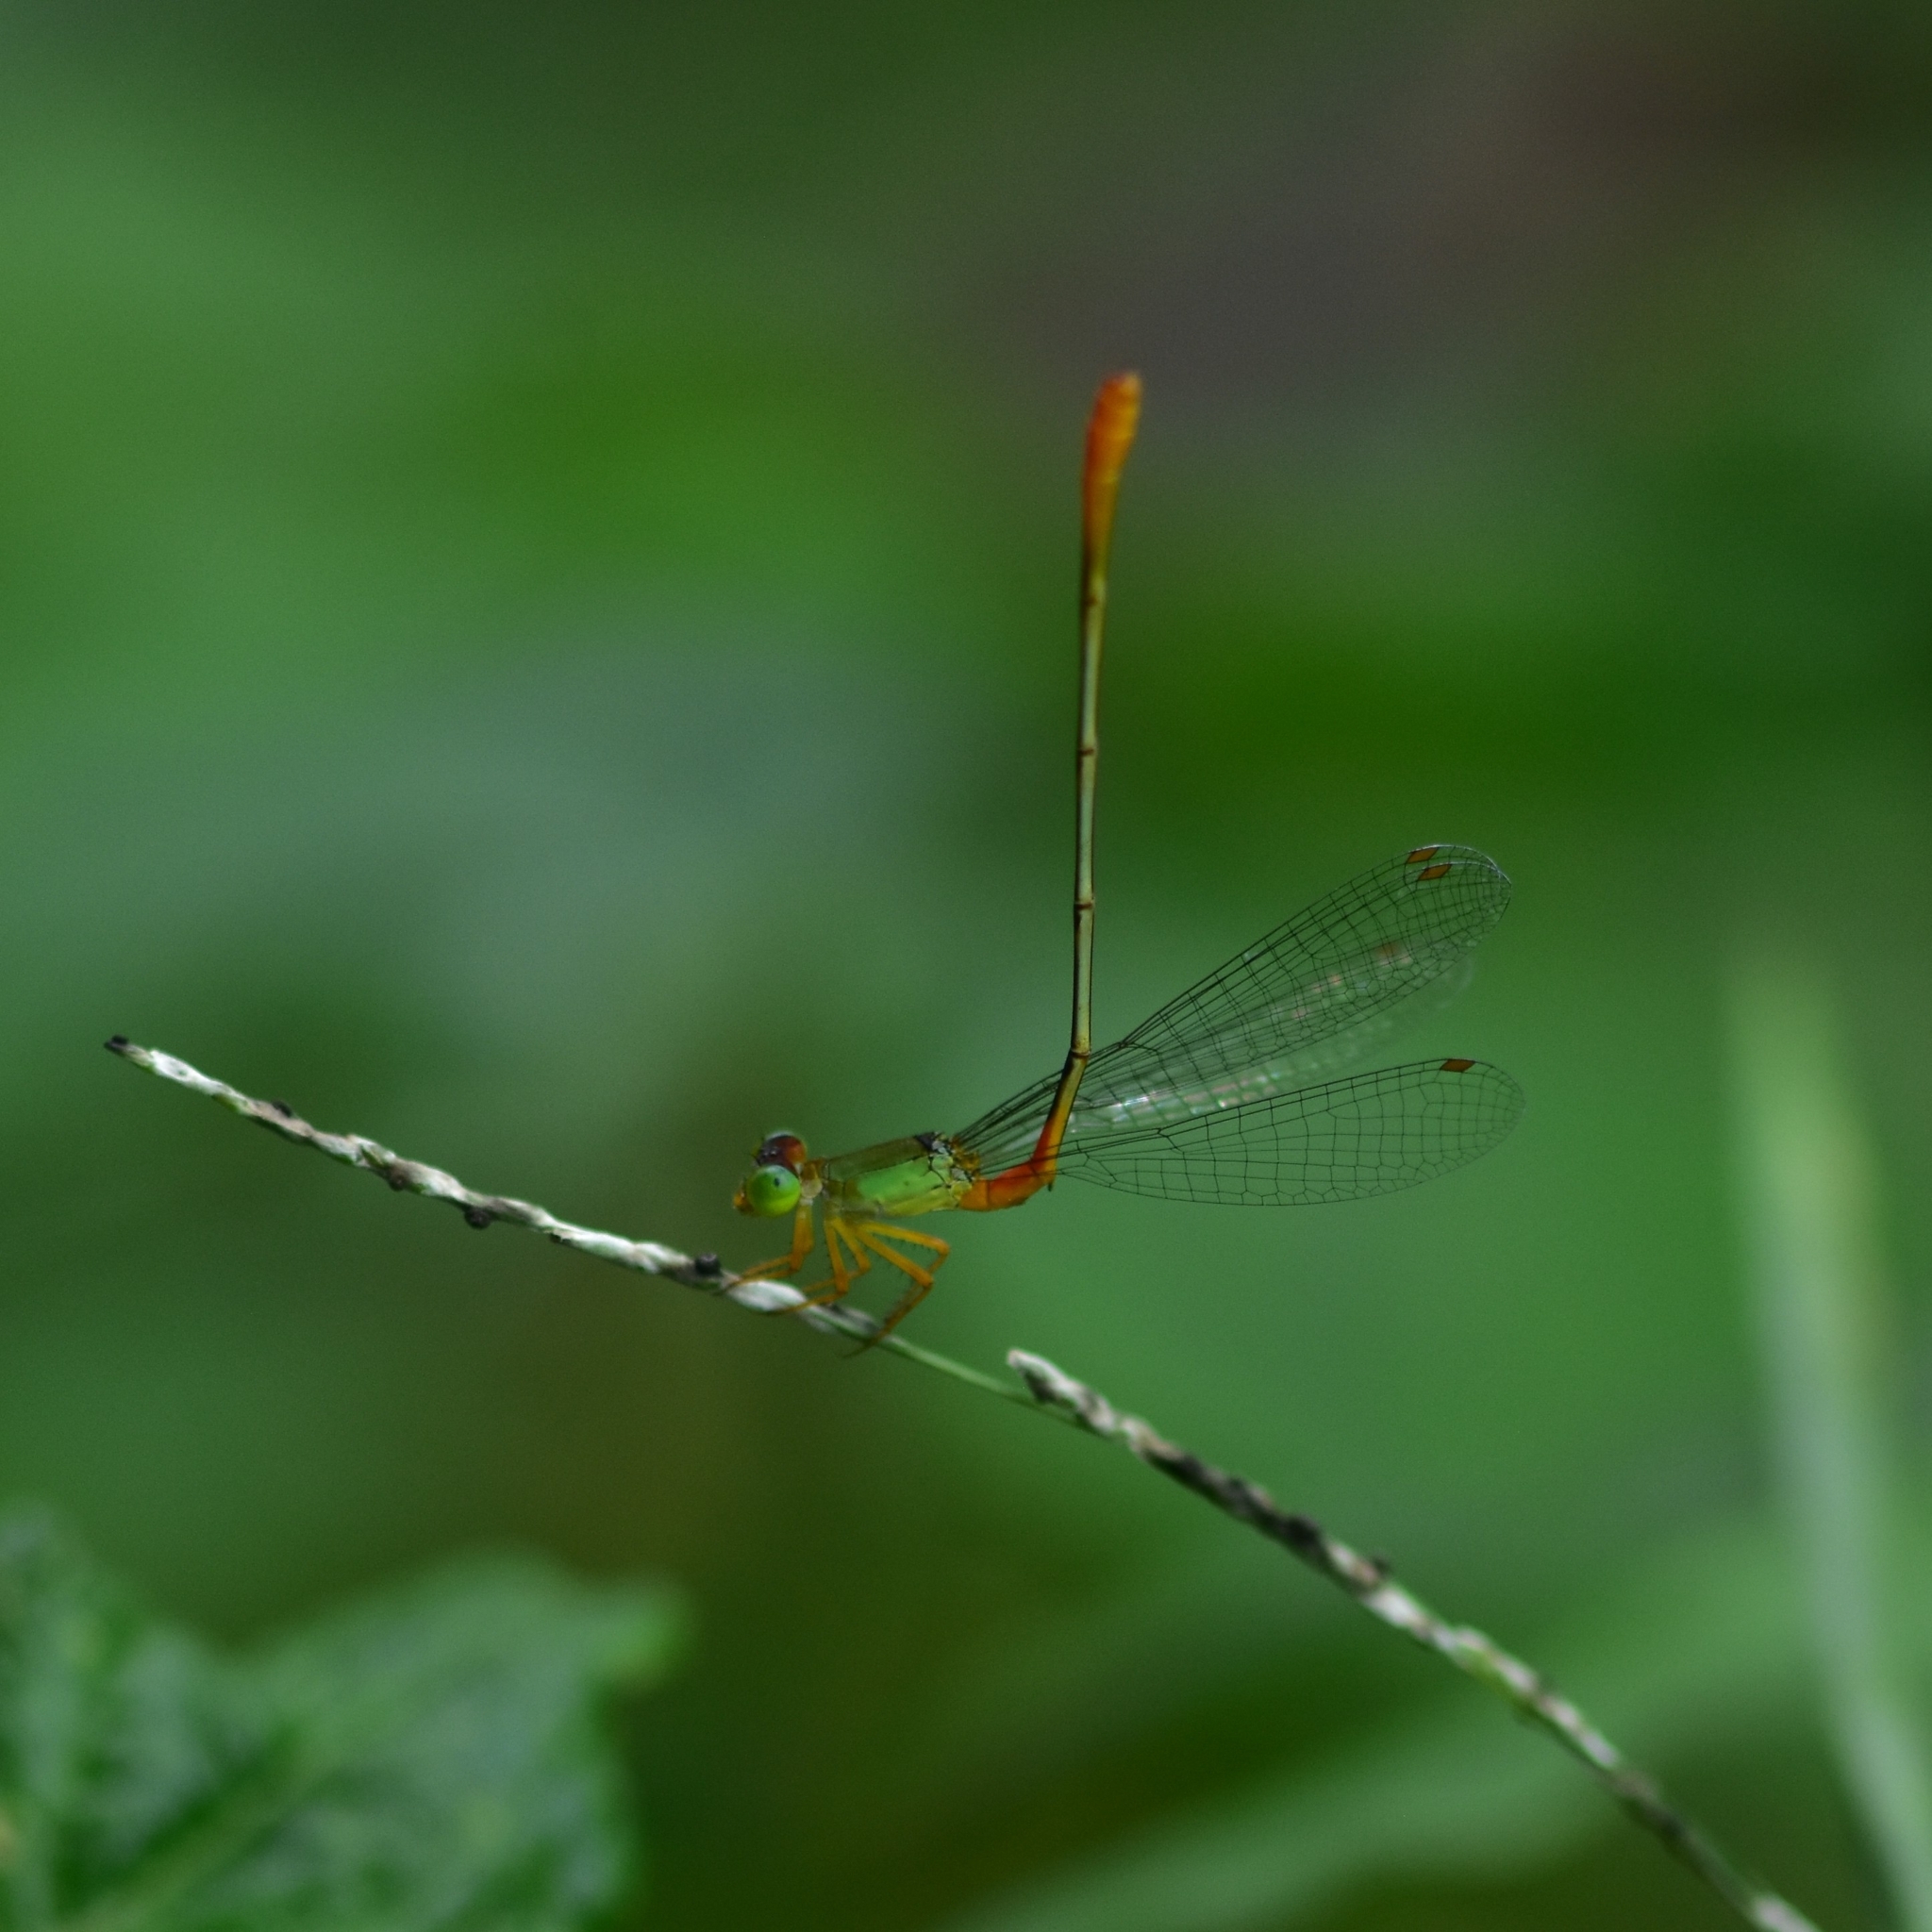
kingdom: Animalia
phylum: Arthropoda
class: Insecta
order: Odonata
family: Coenagrionidae
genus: Ceriagrion
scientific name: Ceriagrion cerinorubellum
